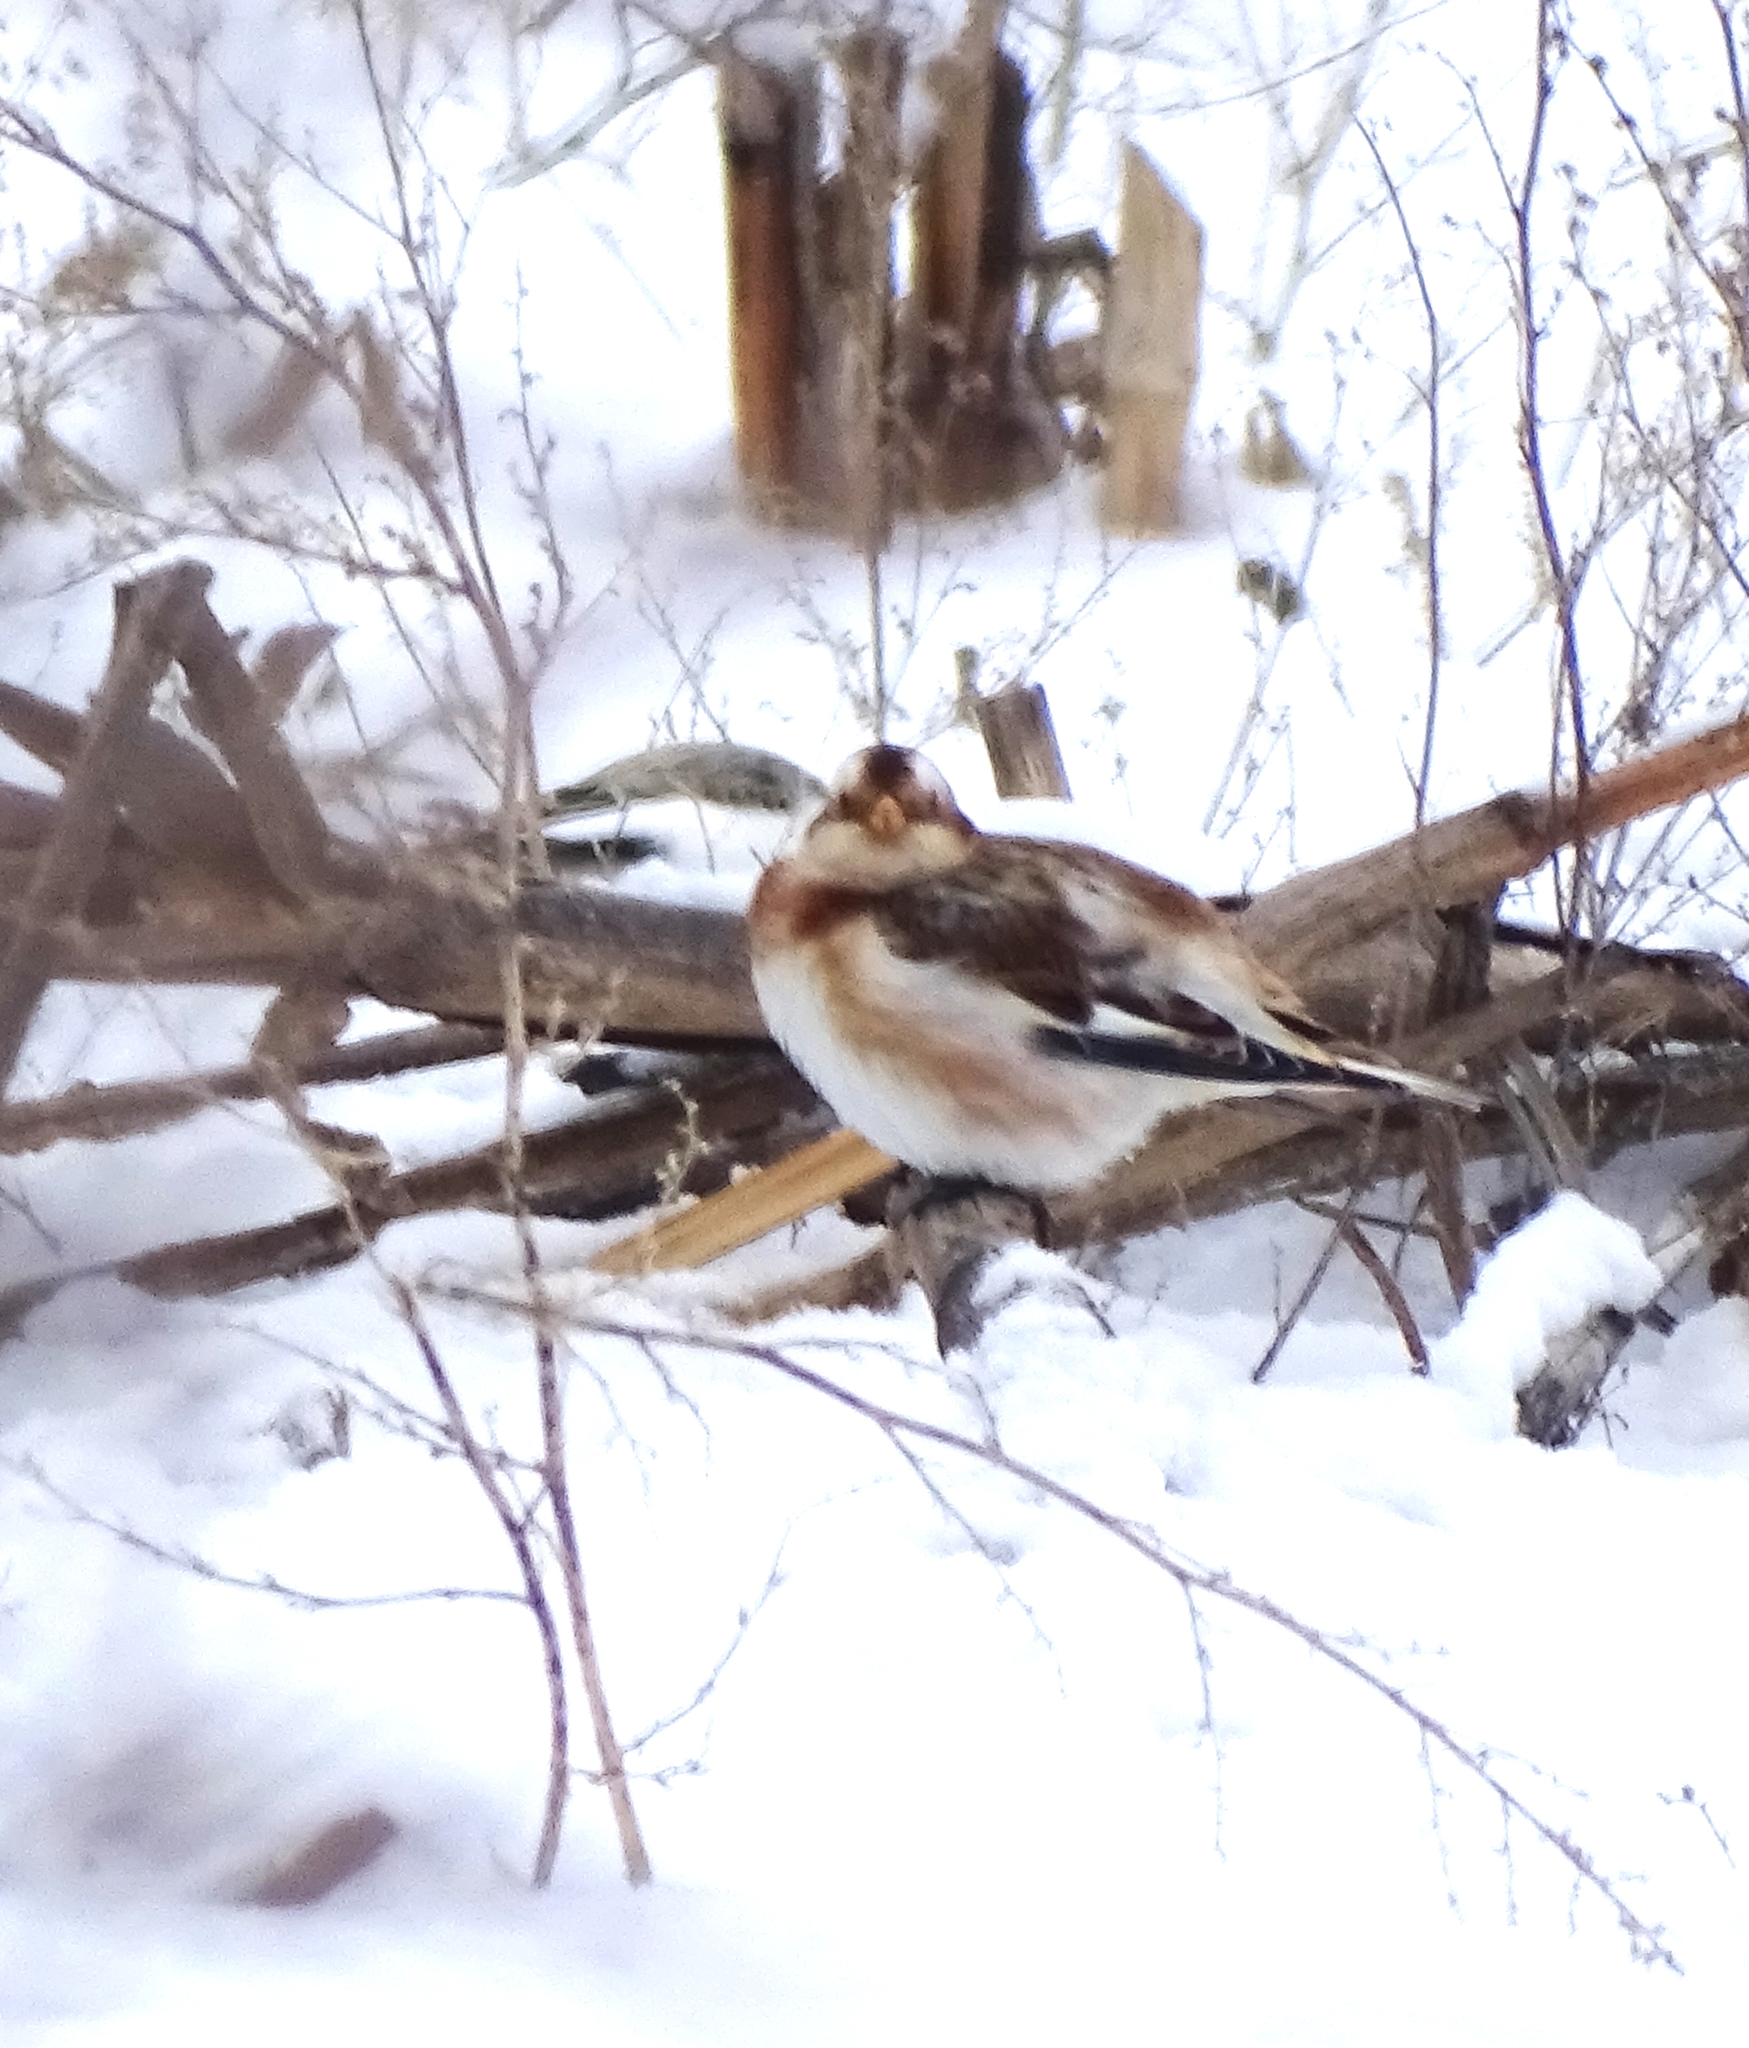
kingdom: Animalia
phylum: Chordata
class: Aves
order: Passeriformes
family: Calcariidae
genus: Plectrophenax
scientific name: Plectrophenax nivalis
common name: Snow bunting
